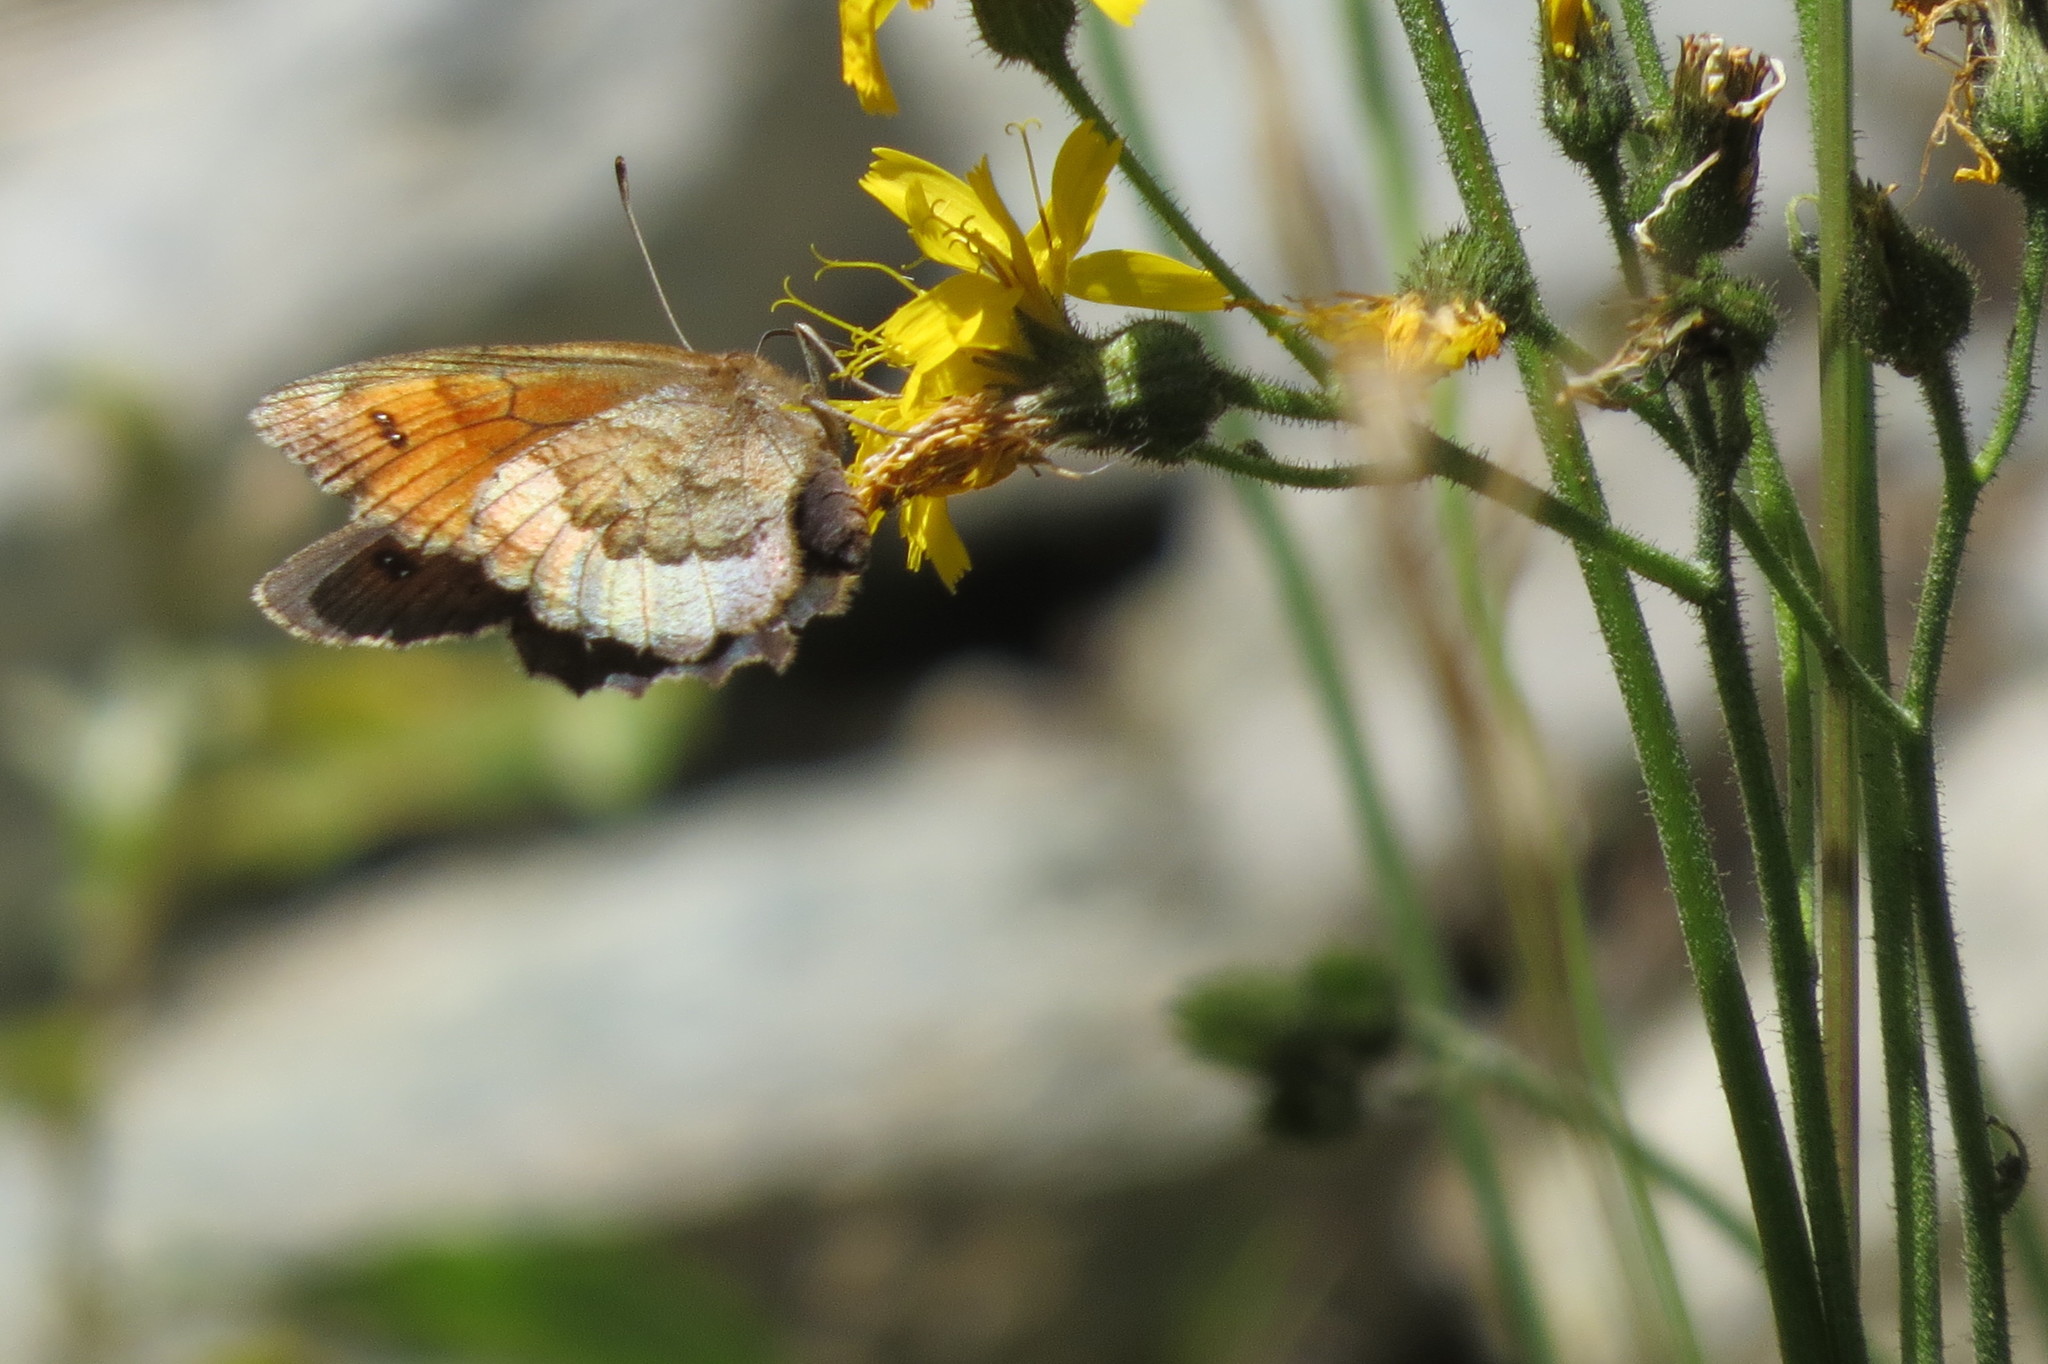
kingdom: Animalia
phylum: Arthropoda
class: Insecta
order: Lepidoptera
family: Nymphalidae
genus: Erebia
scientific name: Erebia pronoe
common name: Water ringlet
